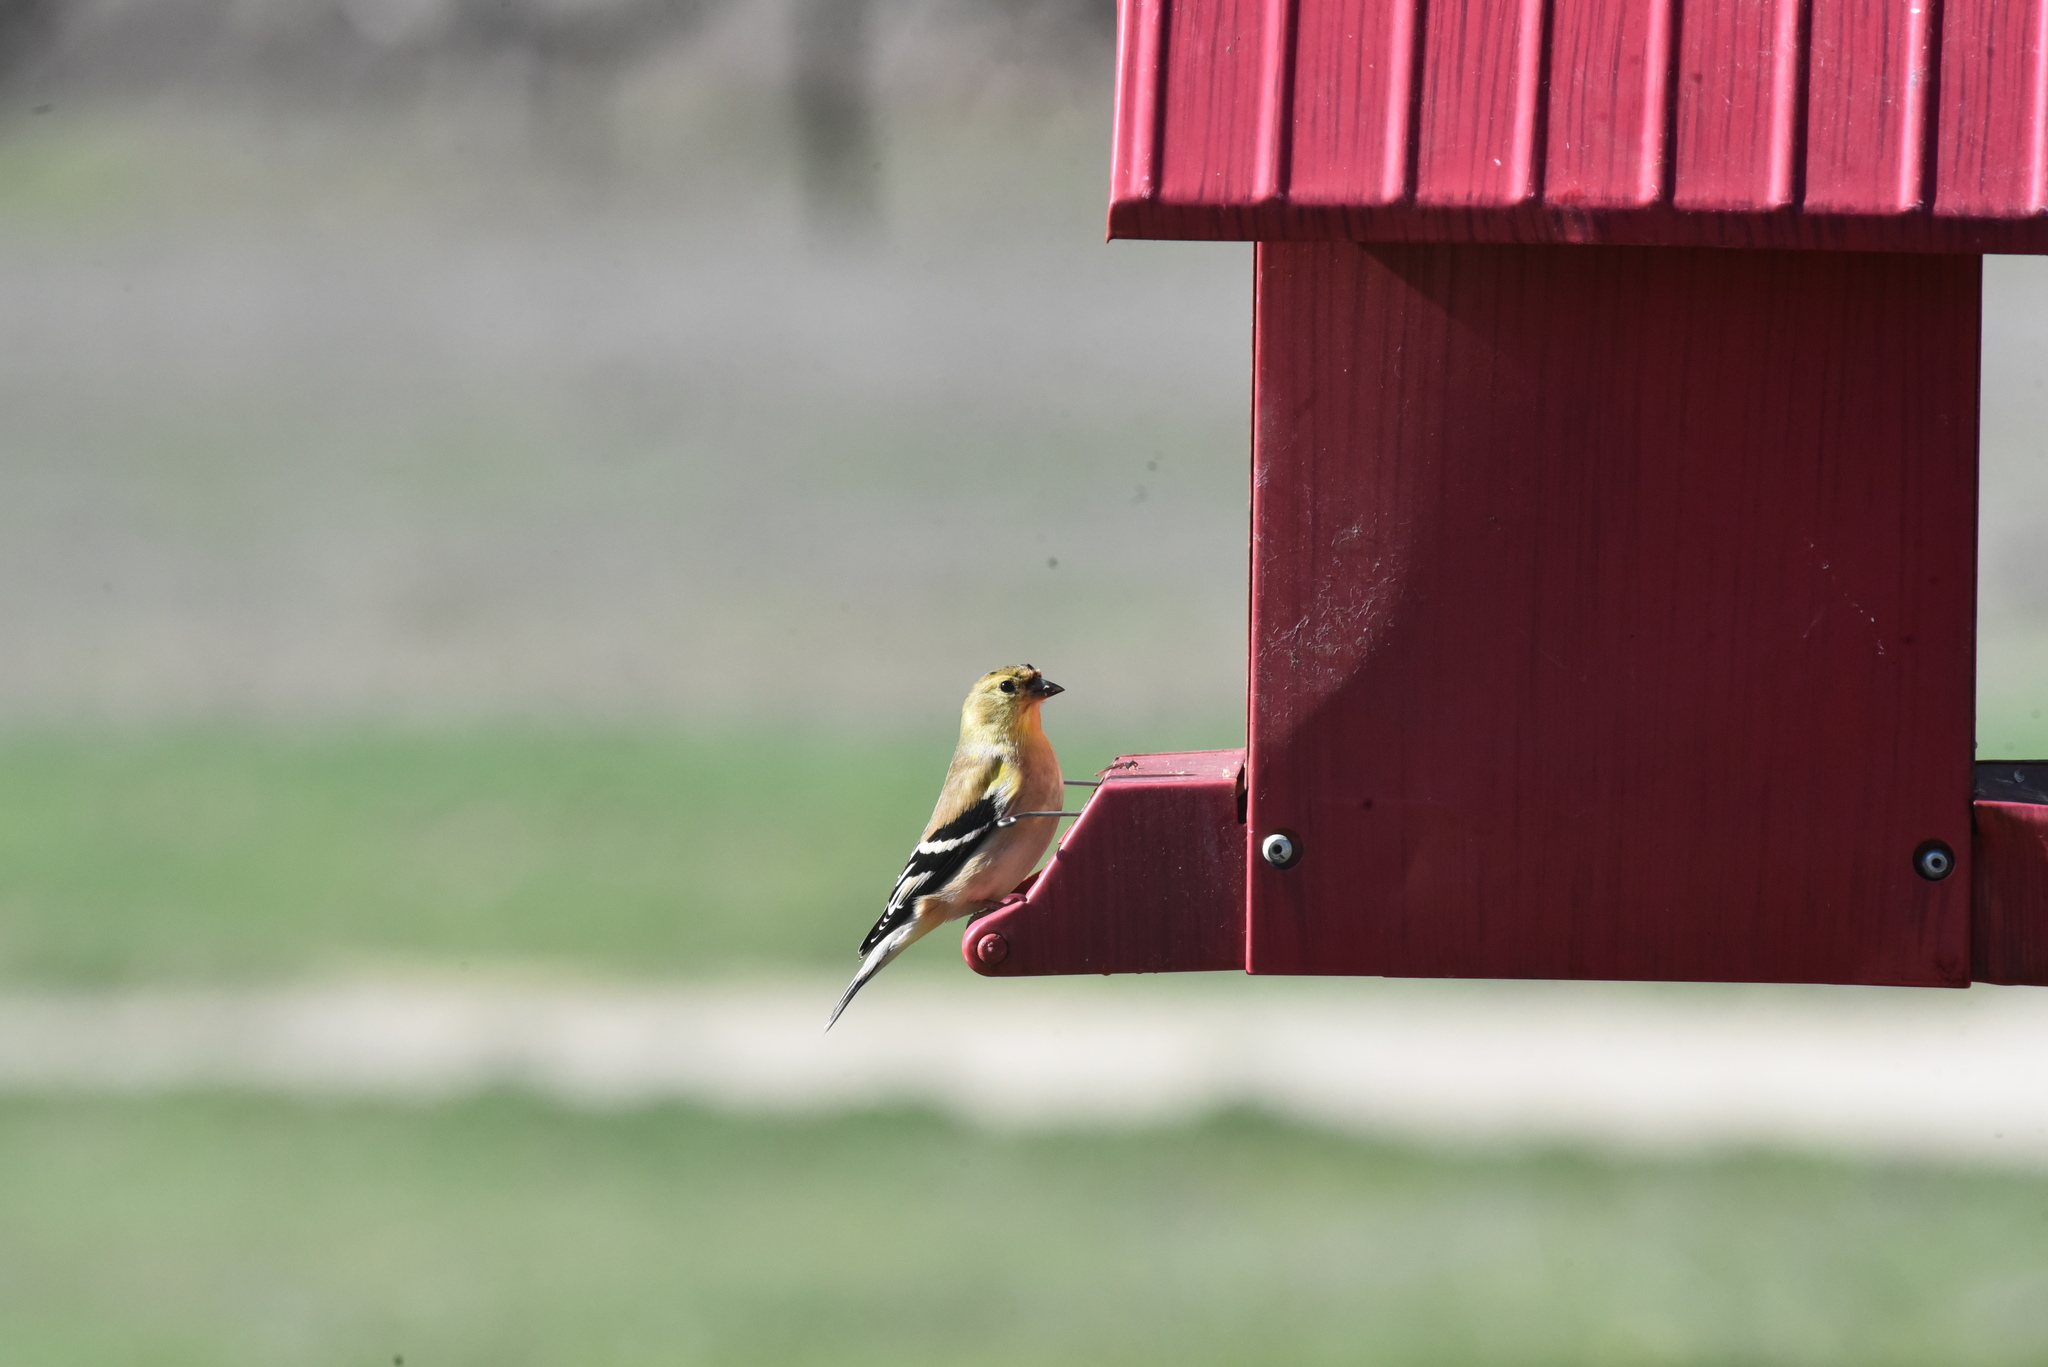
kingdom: Animalia
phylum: Chordata
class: Aves
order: Passeriformes
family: Fringillidae
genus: Spinus
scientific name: Spinus tristis
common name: American goldfinch
